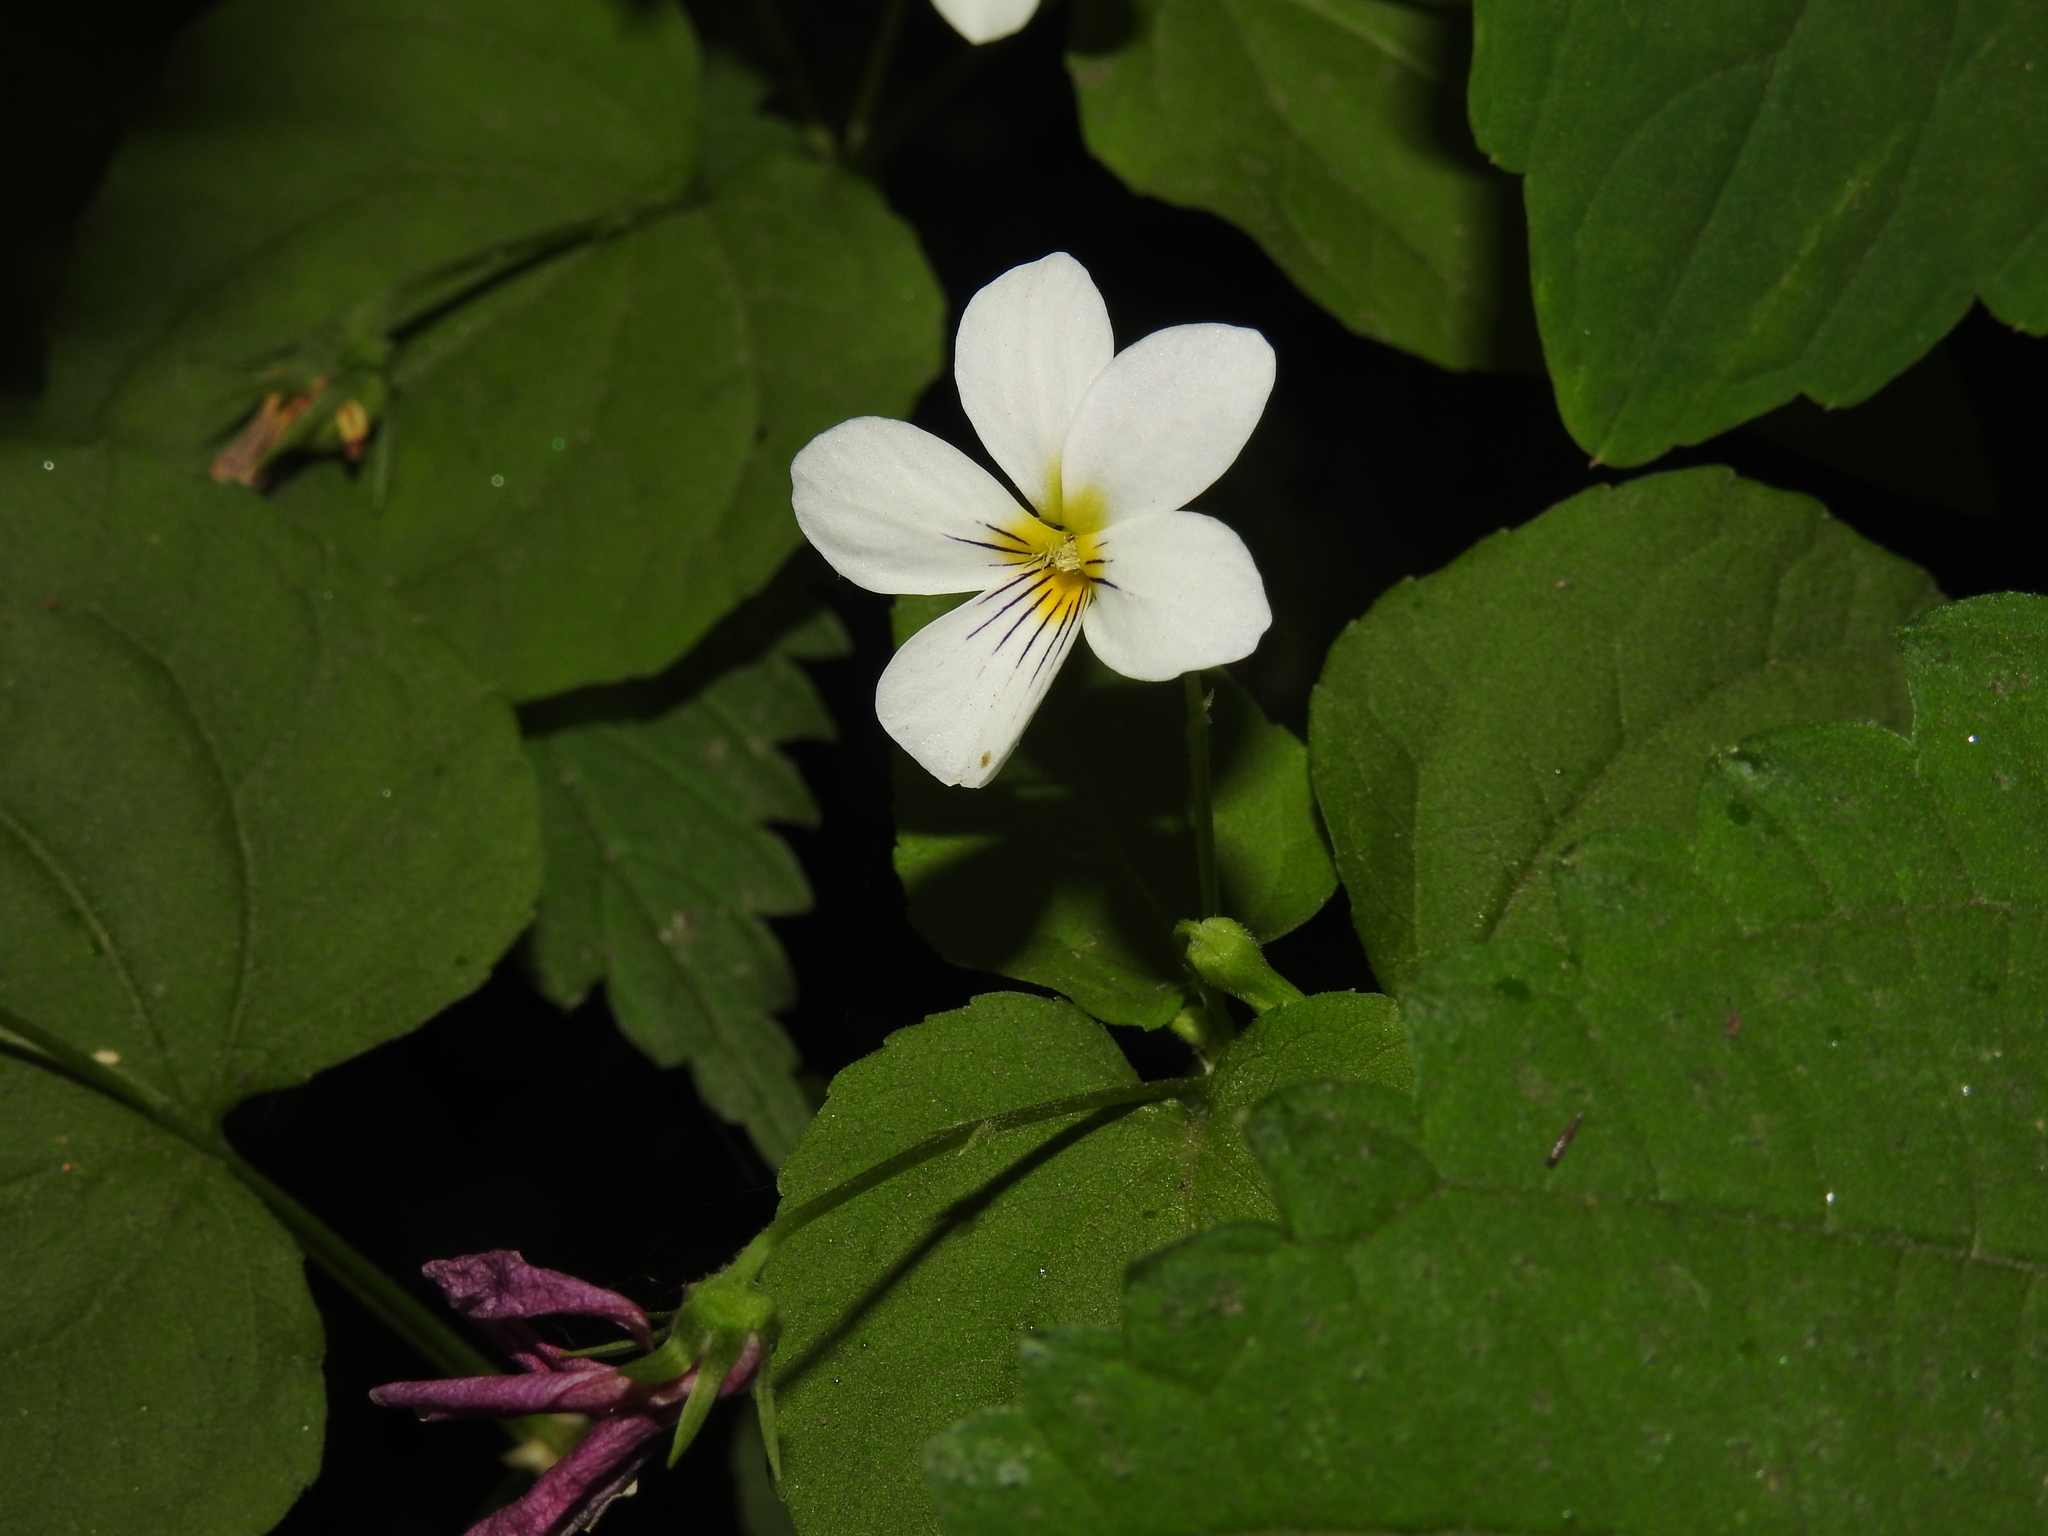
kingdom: Plantae
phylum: Tracheophyta
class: Magnoliopsida
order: Malpighiales
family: Violaceae
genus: Viola
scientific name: Viola canadensis
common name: Canada violet
